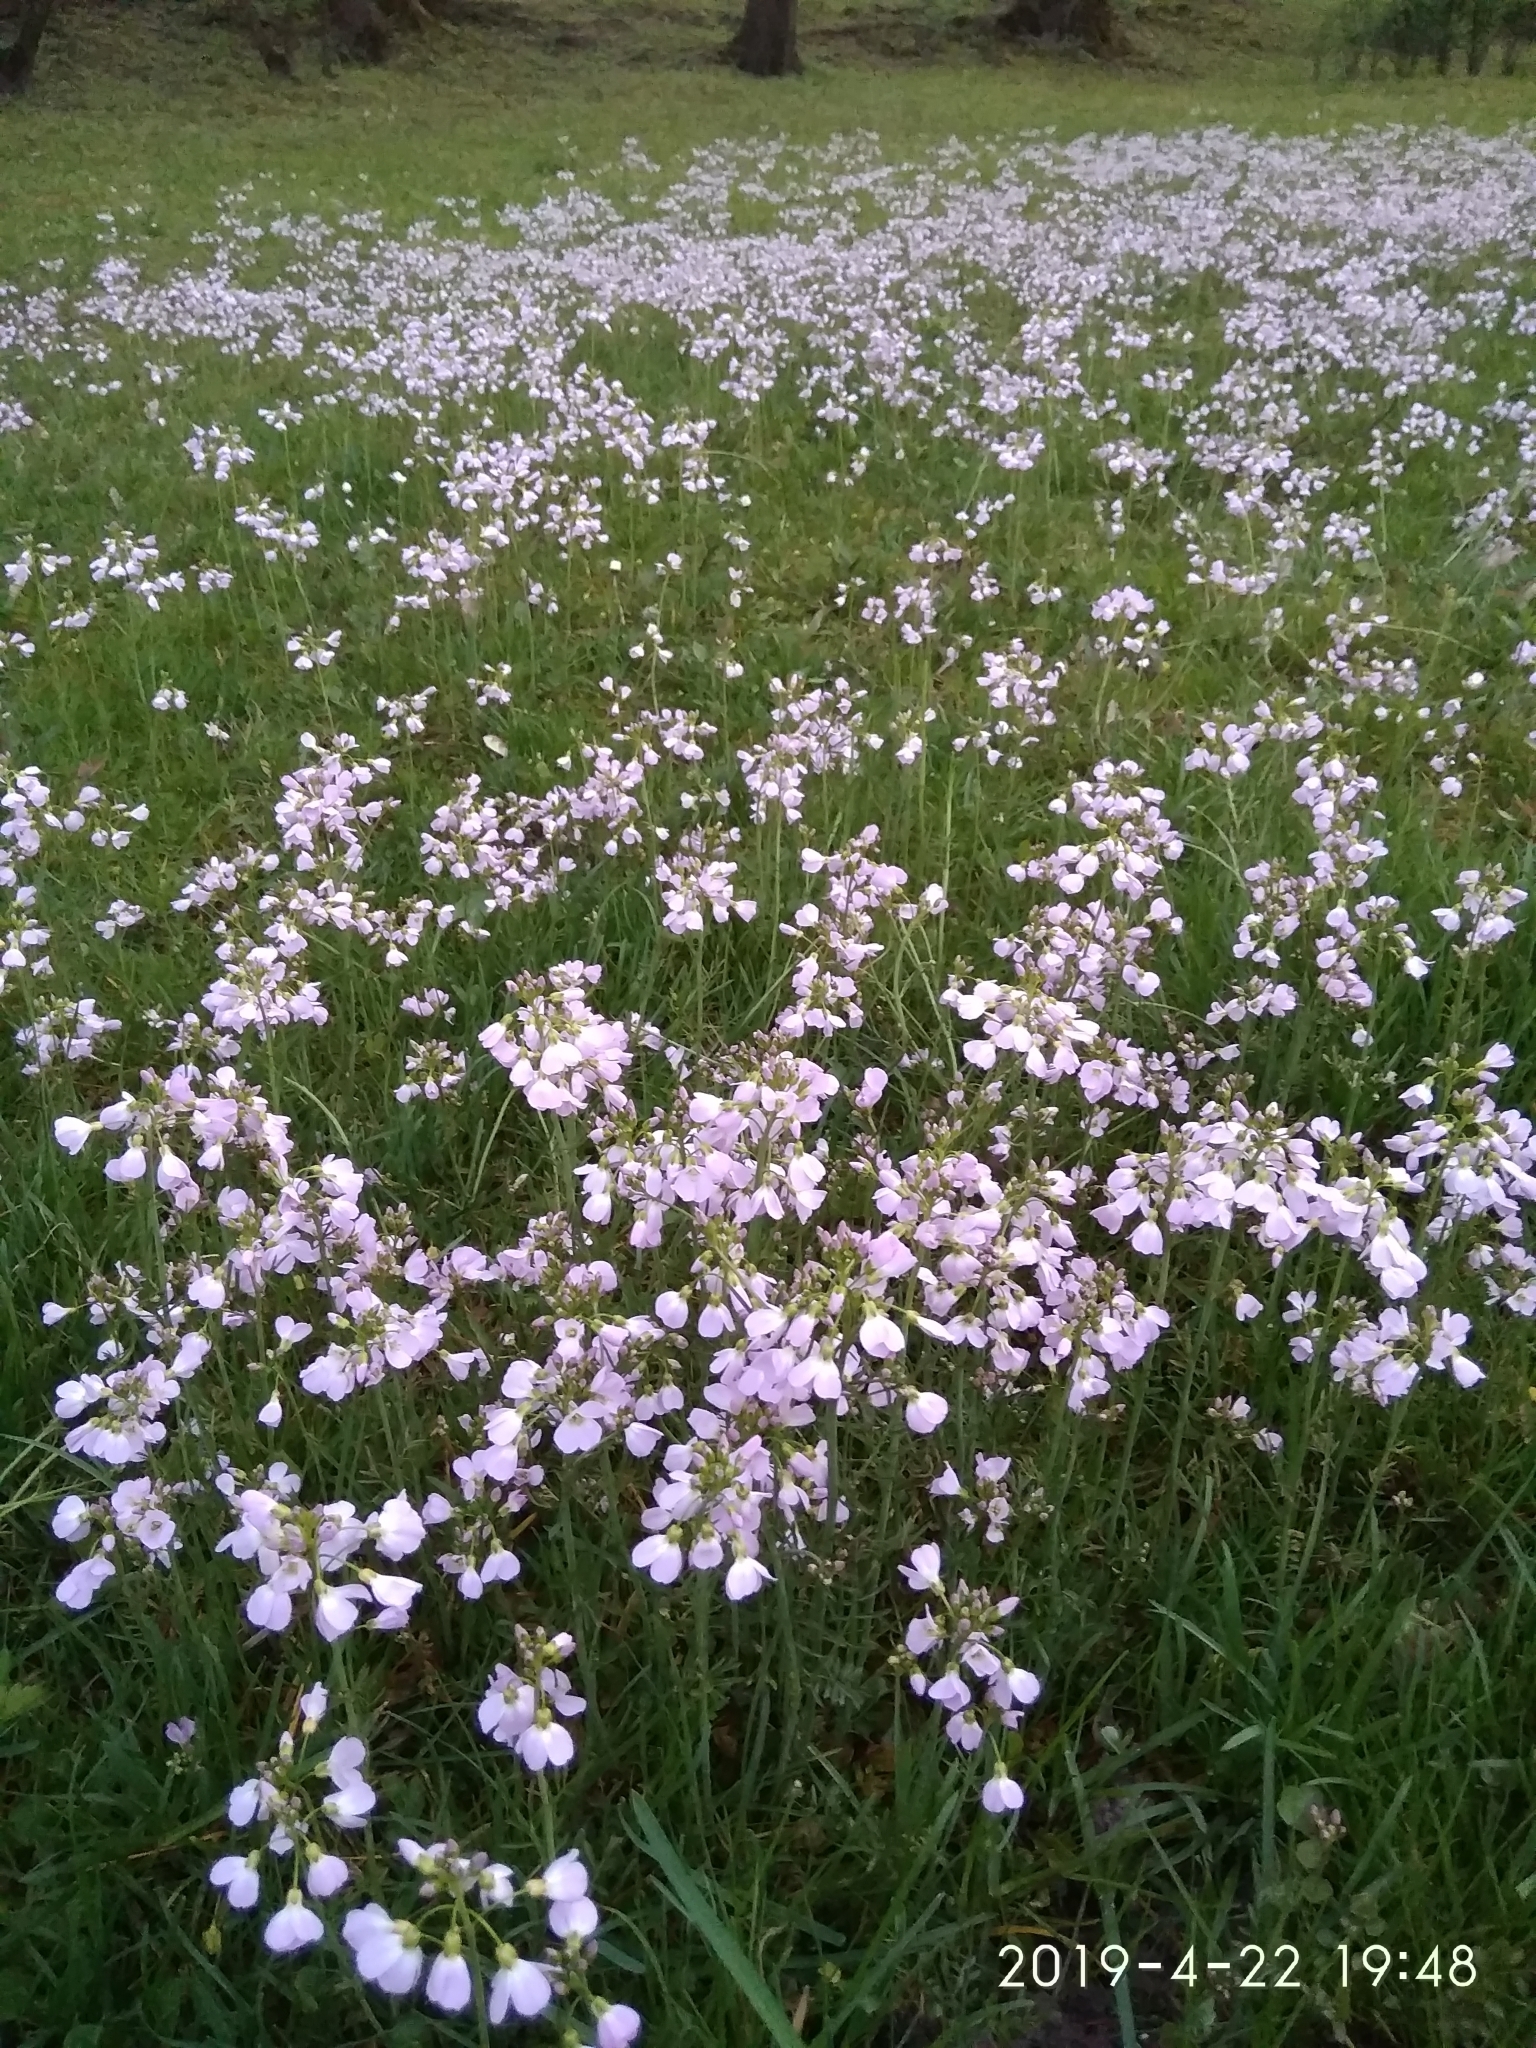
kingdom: Plantae
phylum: Tracheophyta
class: Magnoliopsida
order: Brassicales
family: Brassicaceae
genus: Cardamine
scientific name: Cardamine pratensis
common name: Cuckoo flower
